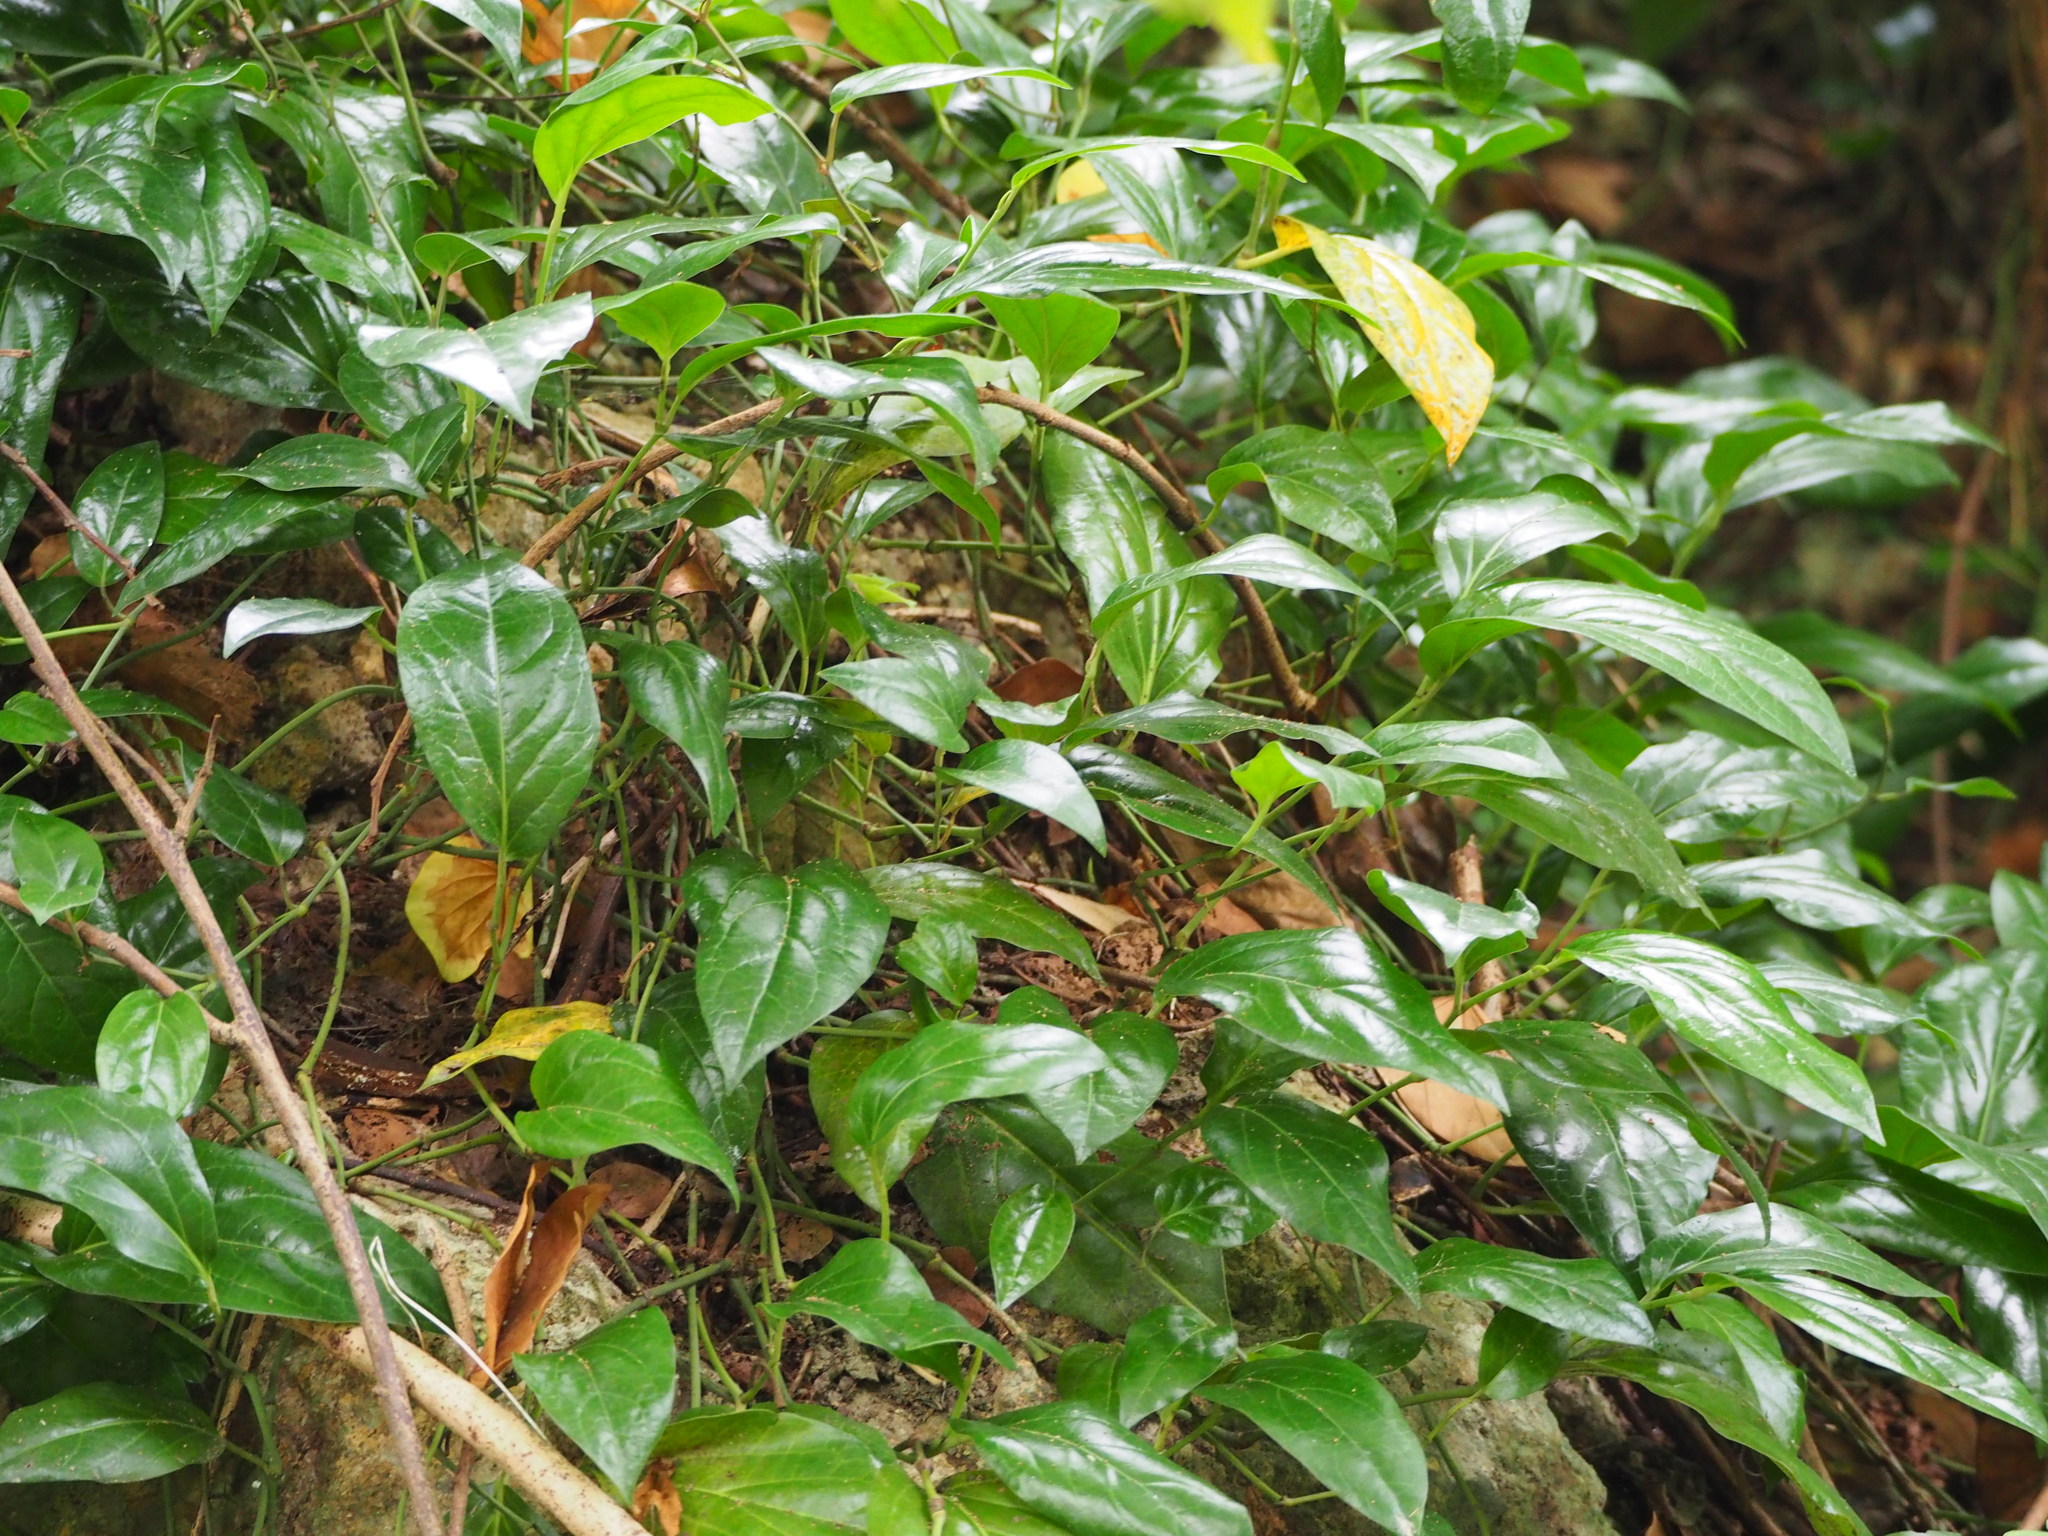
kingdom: Plantae
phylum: Tracheophyta
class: Magnoliopsida
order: Piperales
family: Piperaceae
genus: Piper
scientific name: Piper kawakamii
